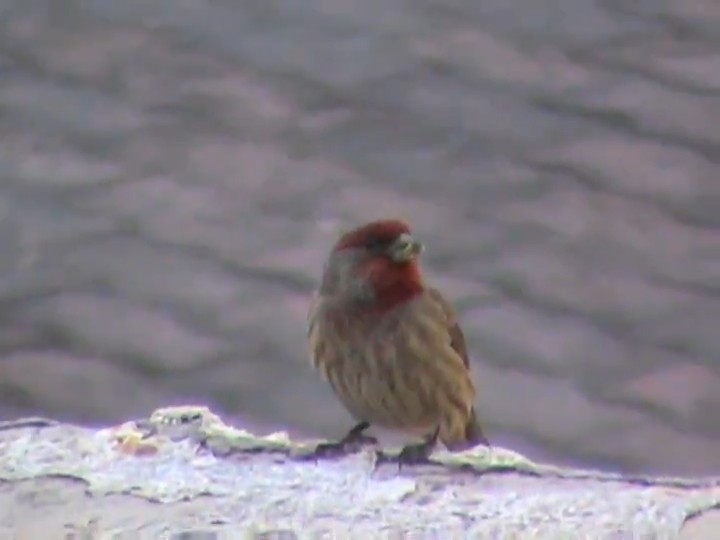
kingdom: Animalia
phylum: Chordata
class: Aves
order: Passeriformes
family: Fringillidae
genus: Haemorhous
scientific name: Haemorhous mexicanus
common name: House finch
